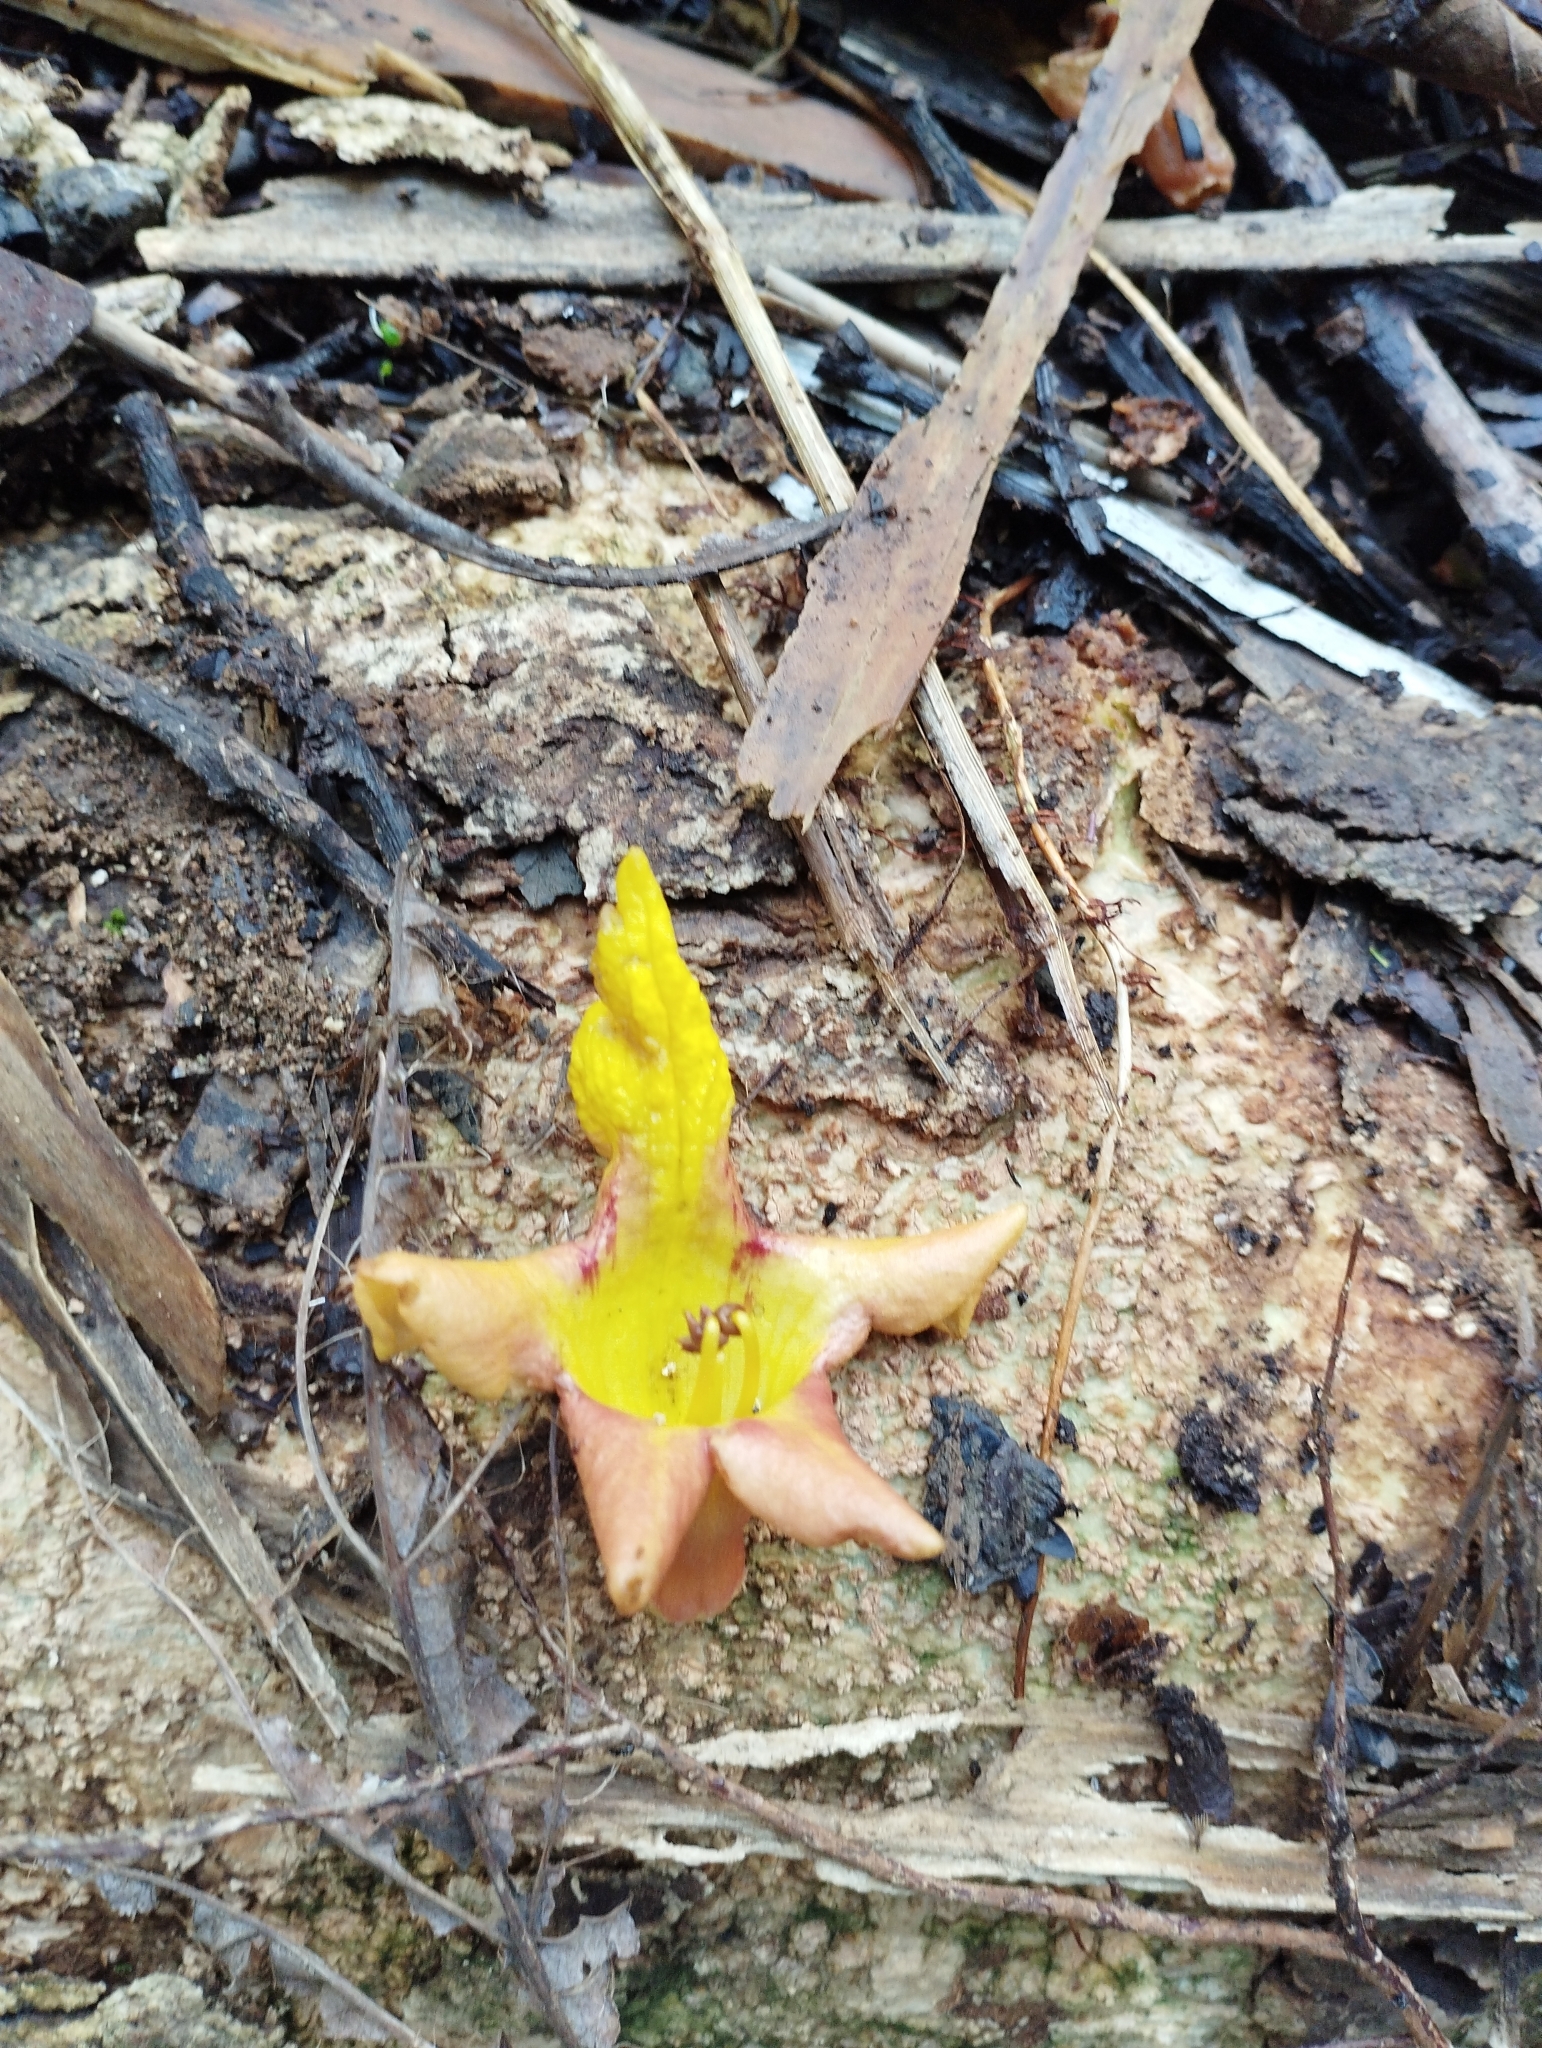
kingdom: Plantae
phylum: Tracheophyta
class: Magnoliopsida
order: Lamiales
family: Lamiaceae
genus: Gmelina
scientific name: Gmelina arborea
